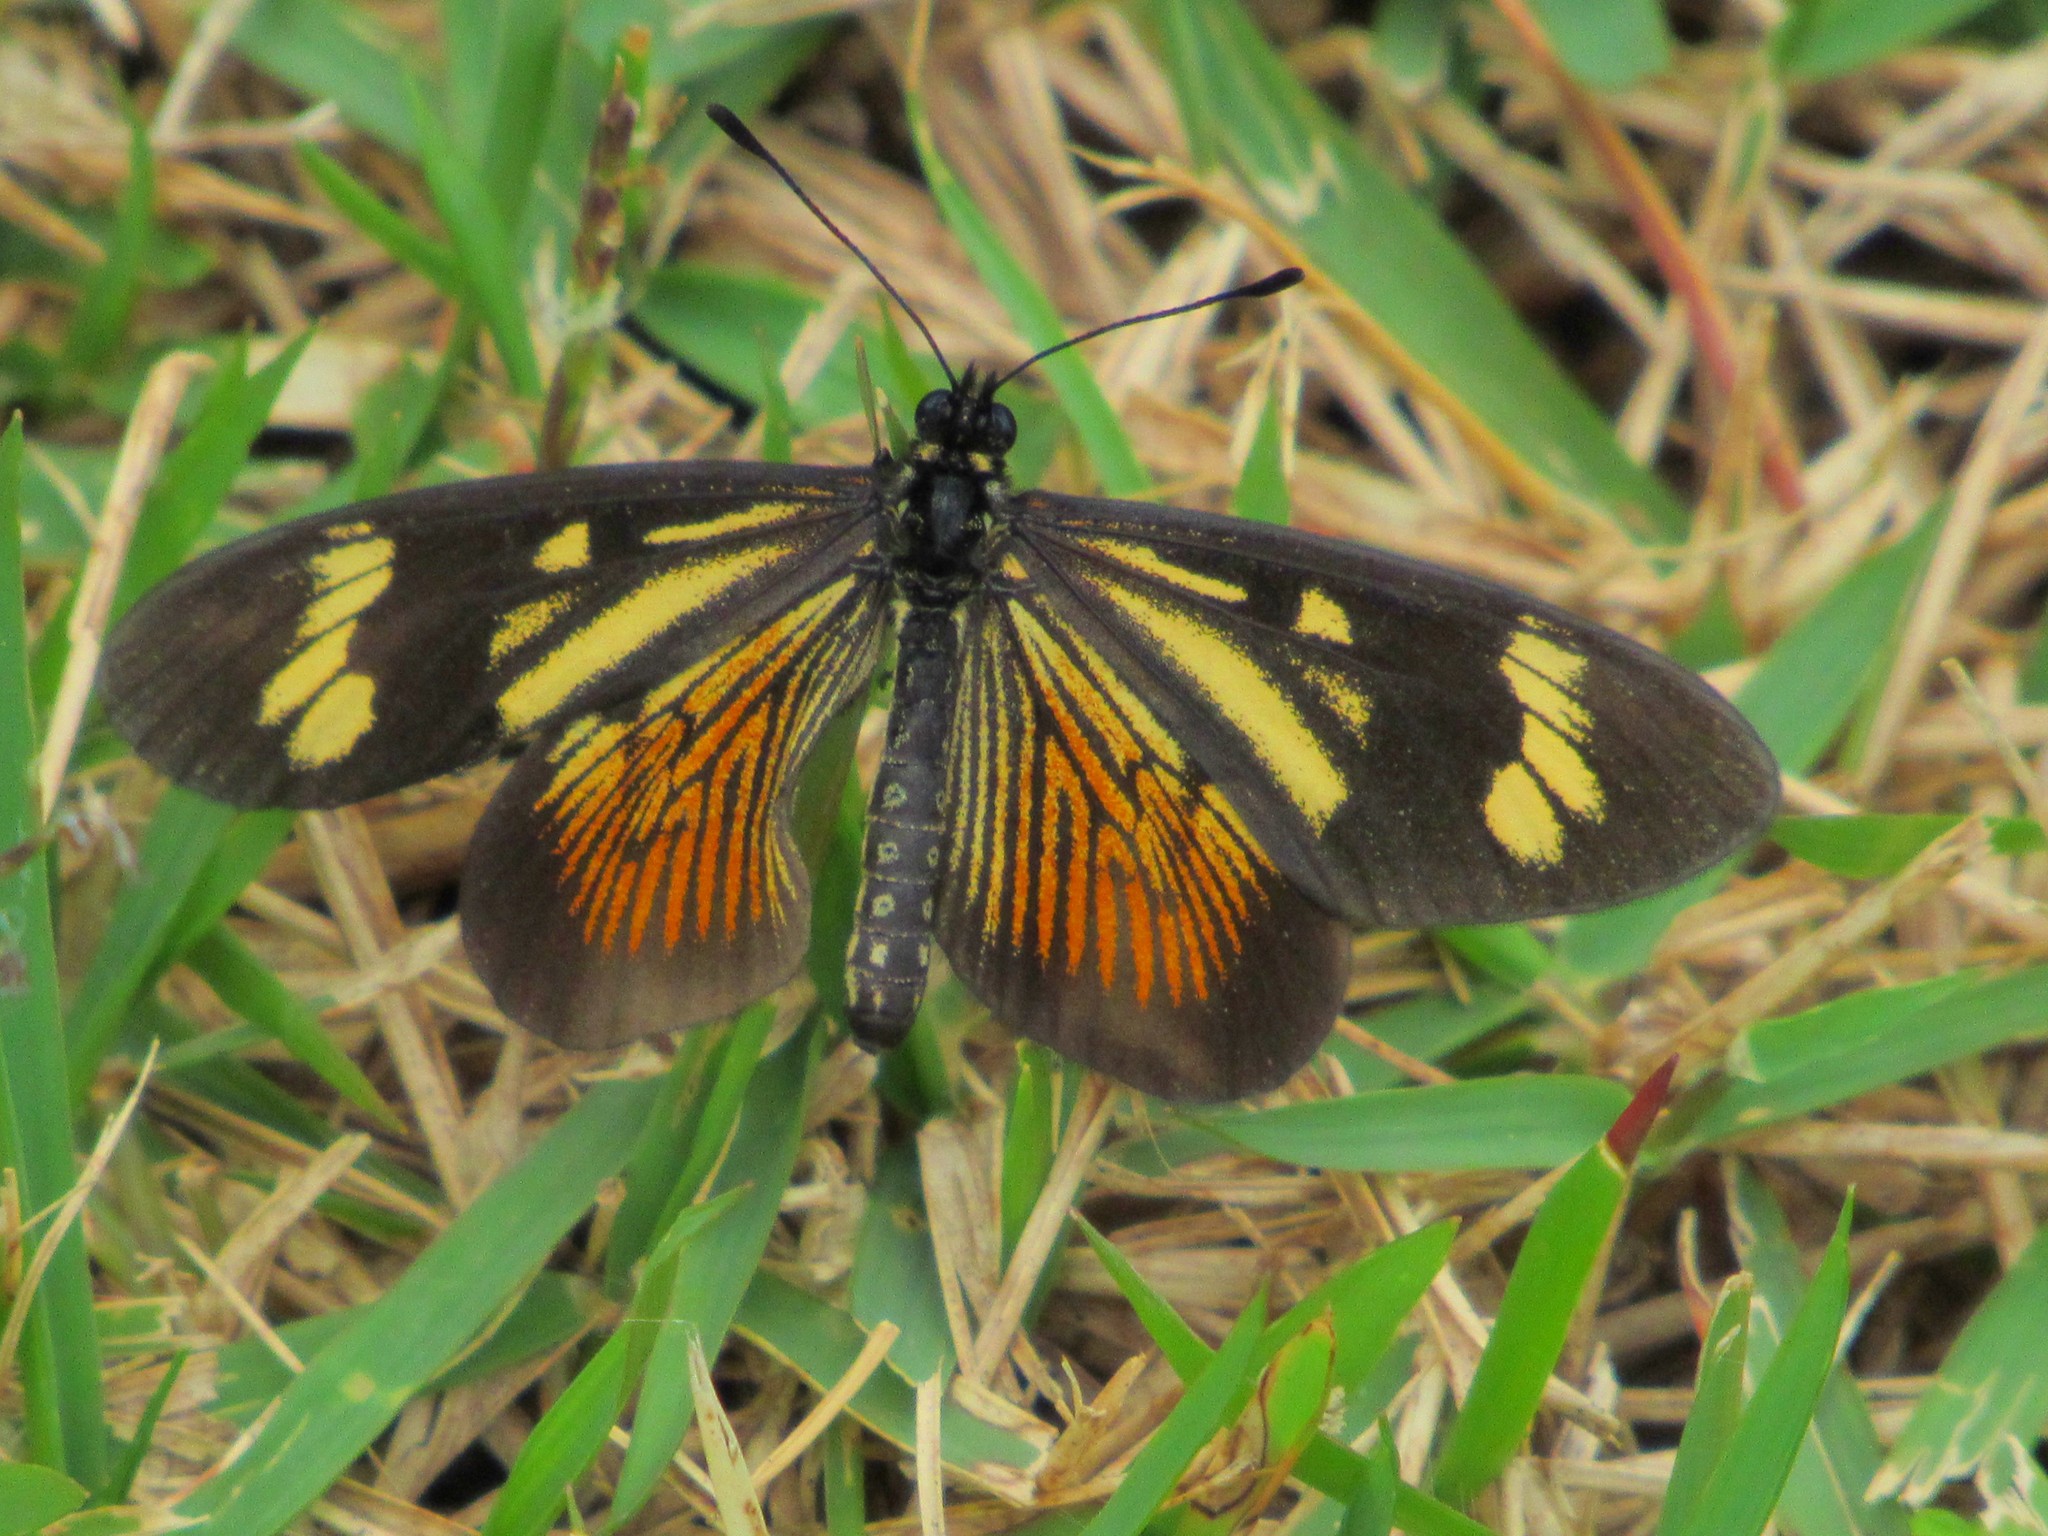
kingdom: Animalia
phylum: Arthropoda
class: Insecta
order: Lepidoptera
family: Nymphalidae
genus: Actinote
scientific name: Actinote carycina
